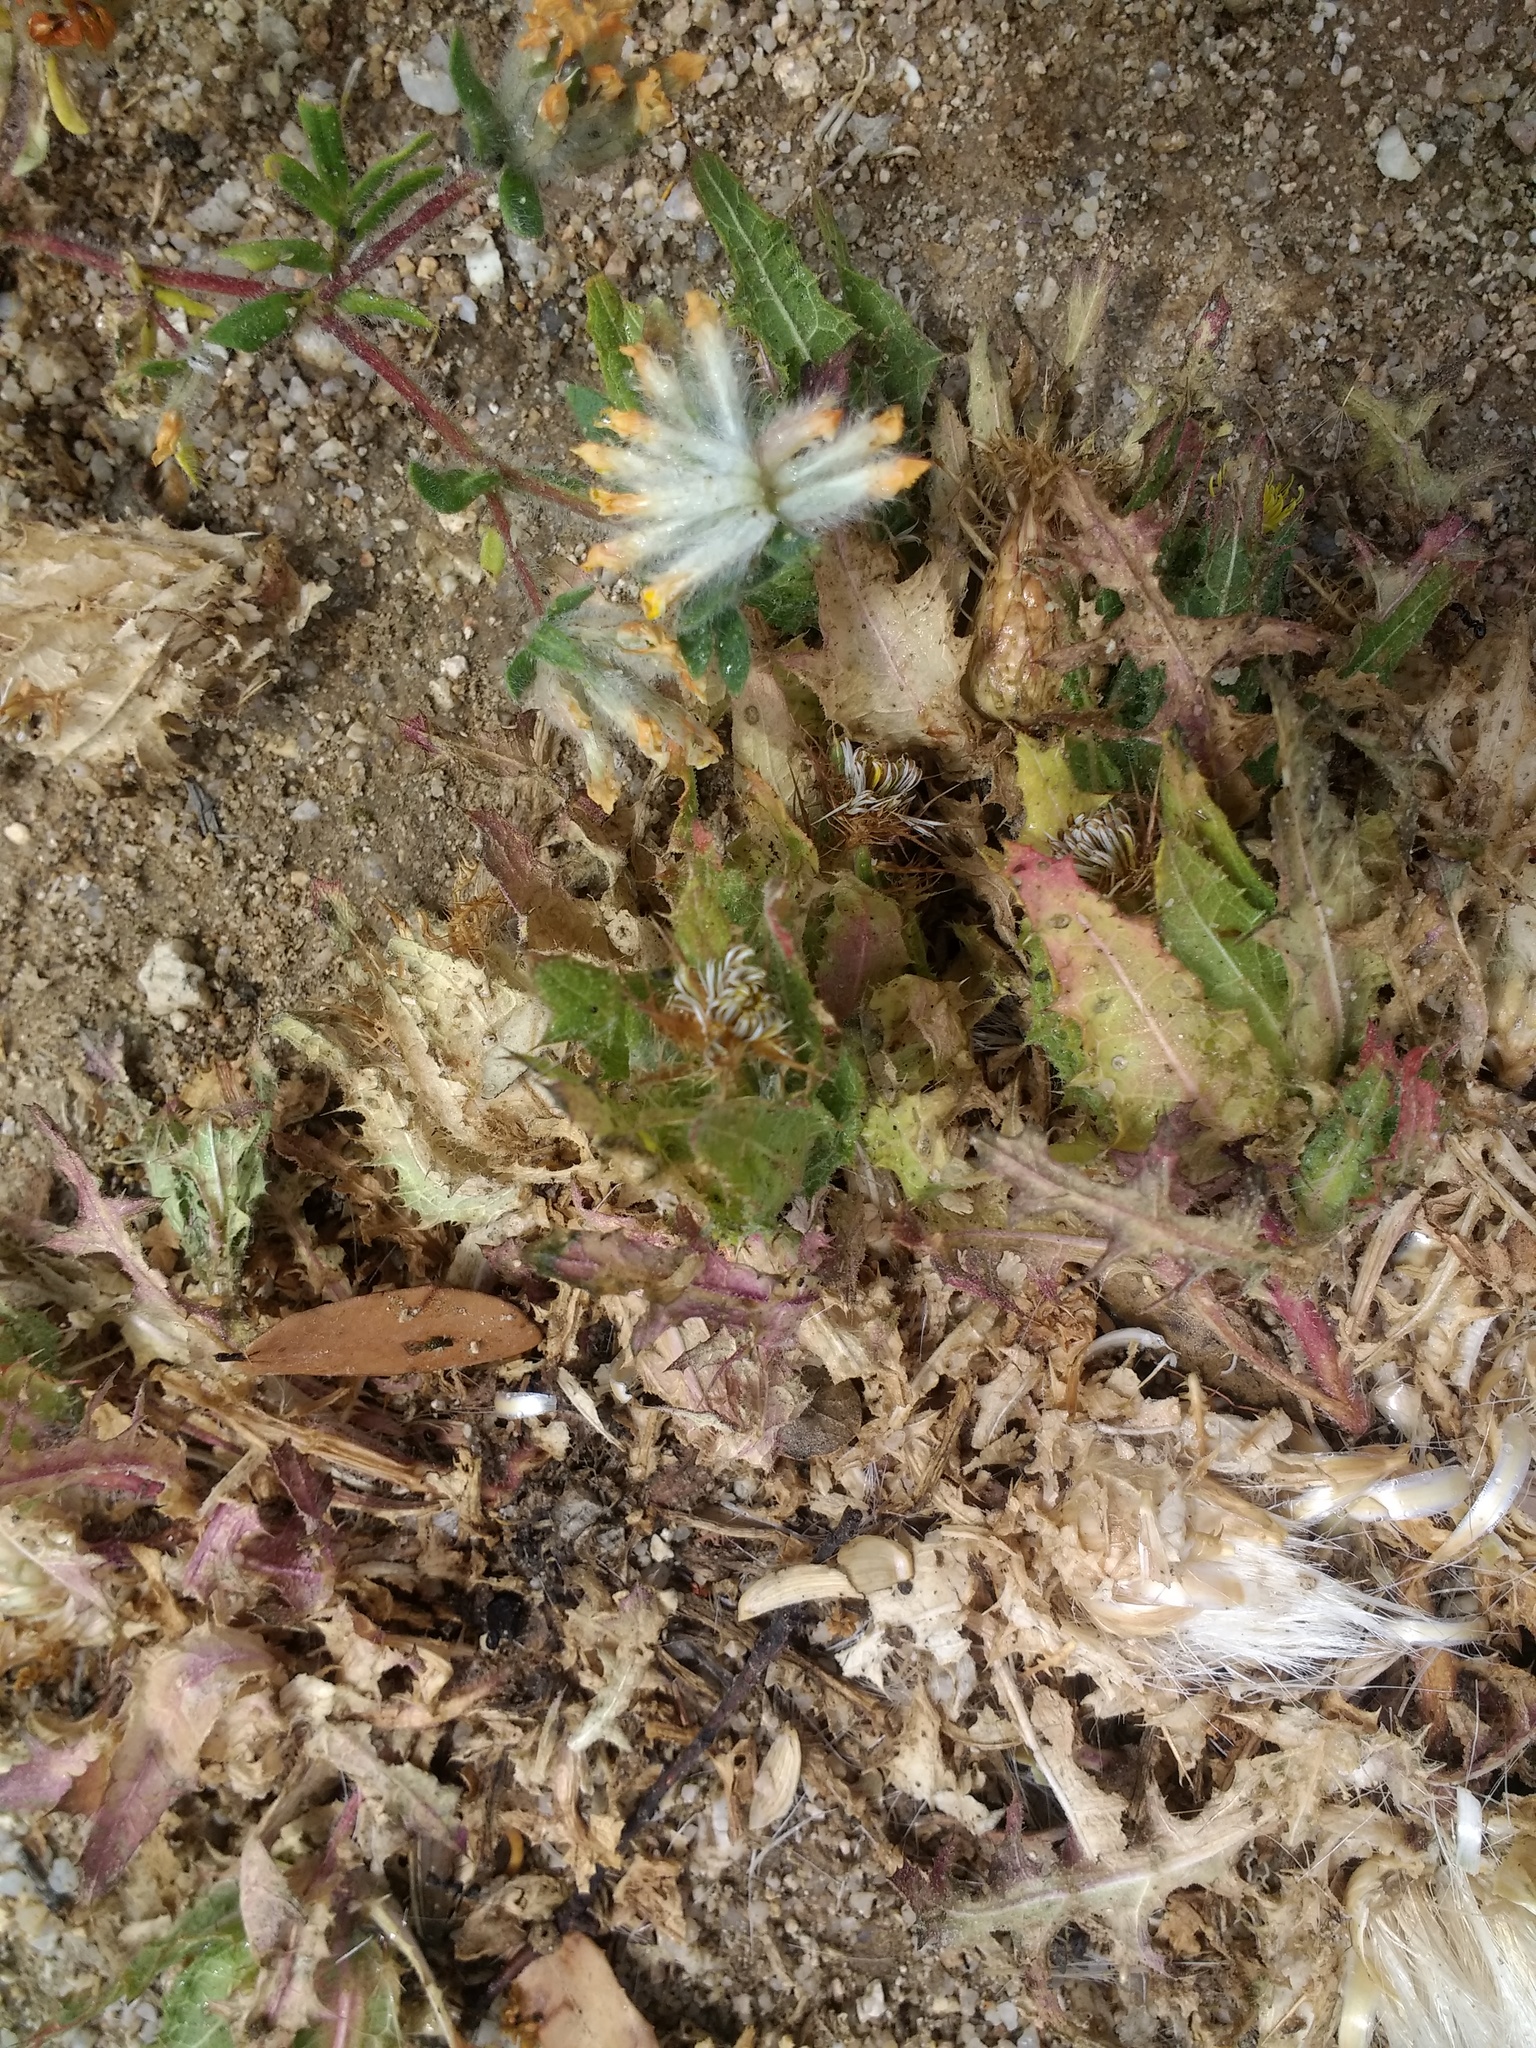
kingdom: Plantae
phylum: Tracheophyta
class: Magnoliopsida
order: Asterales
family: Asteraceae
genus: Centaurea
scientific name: Centaurea benedicta
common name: Blessed thistle
